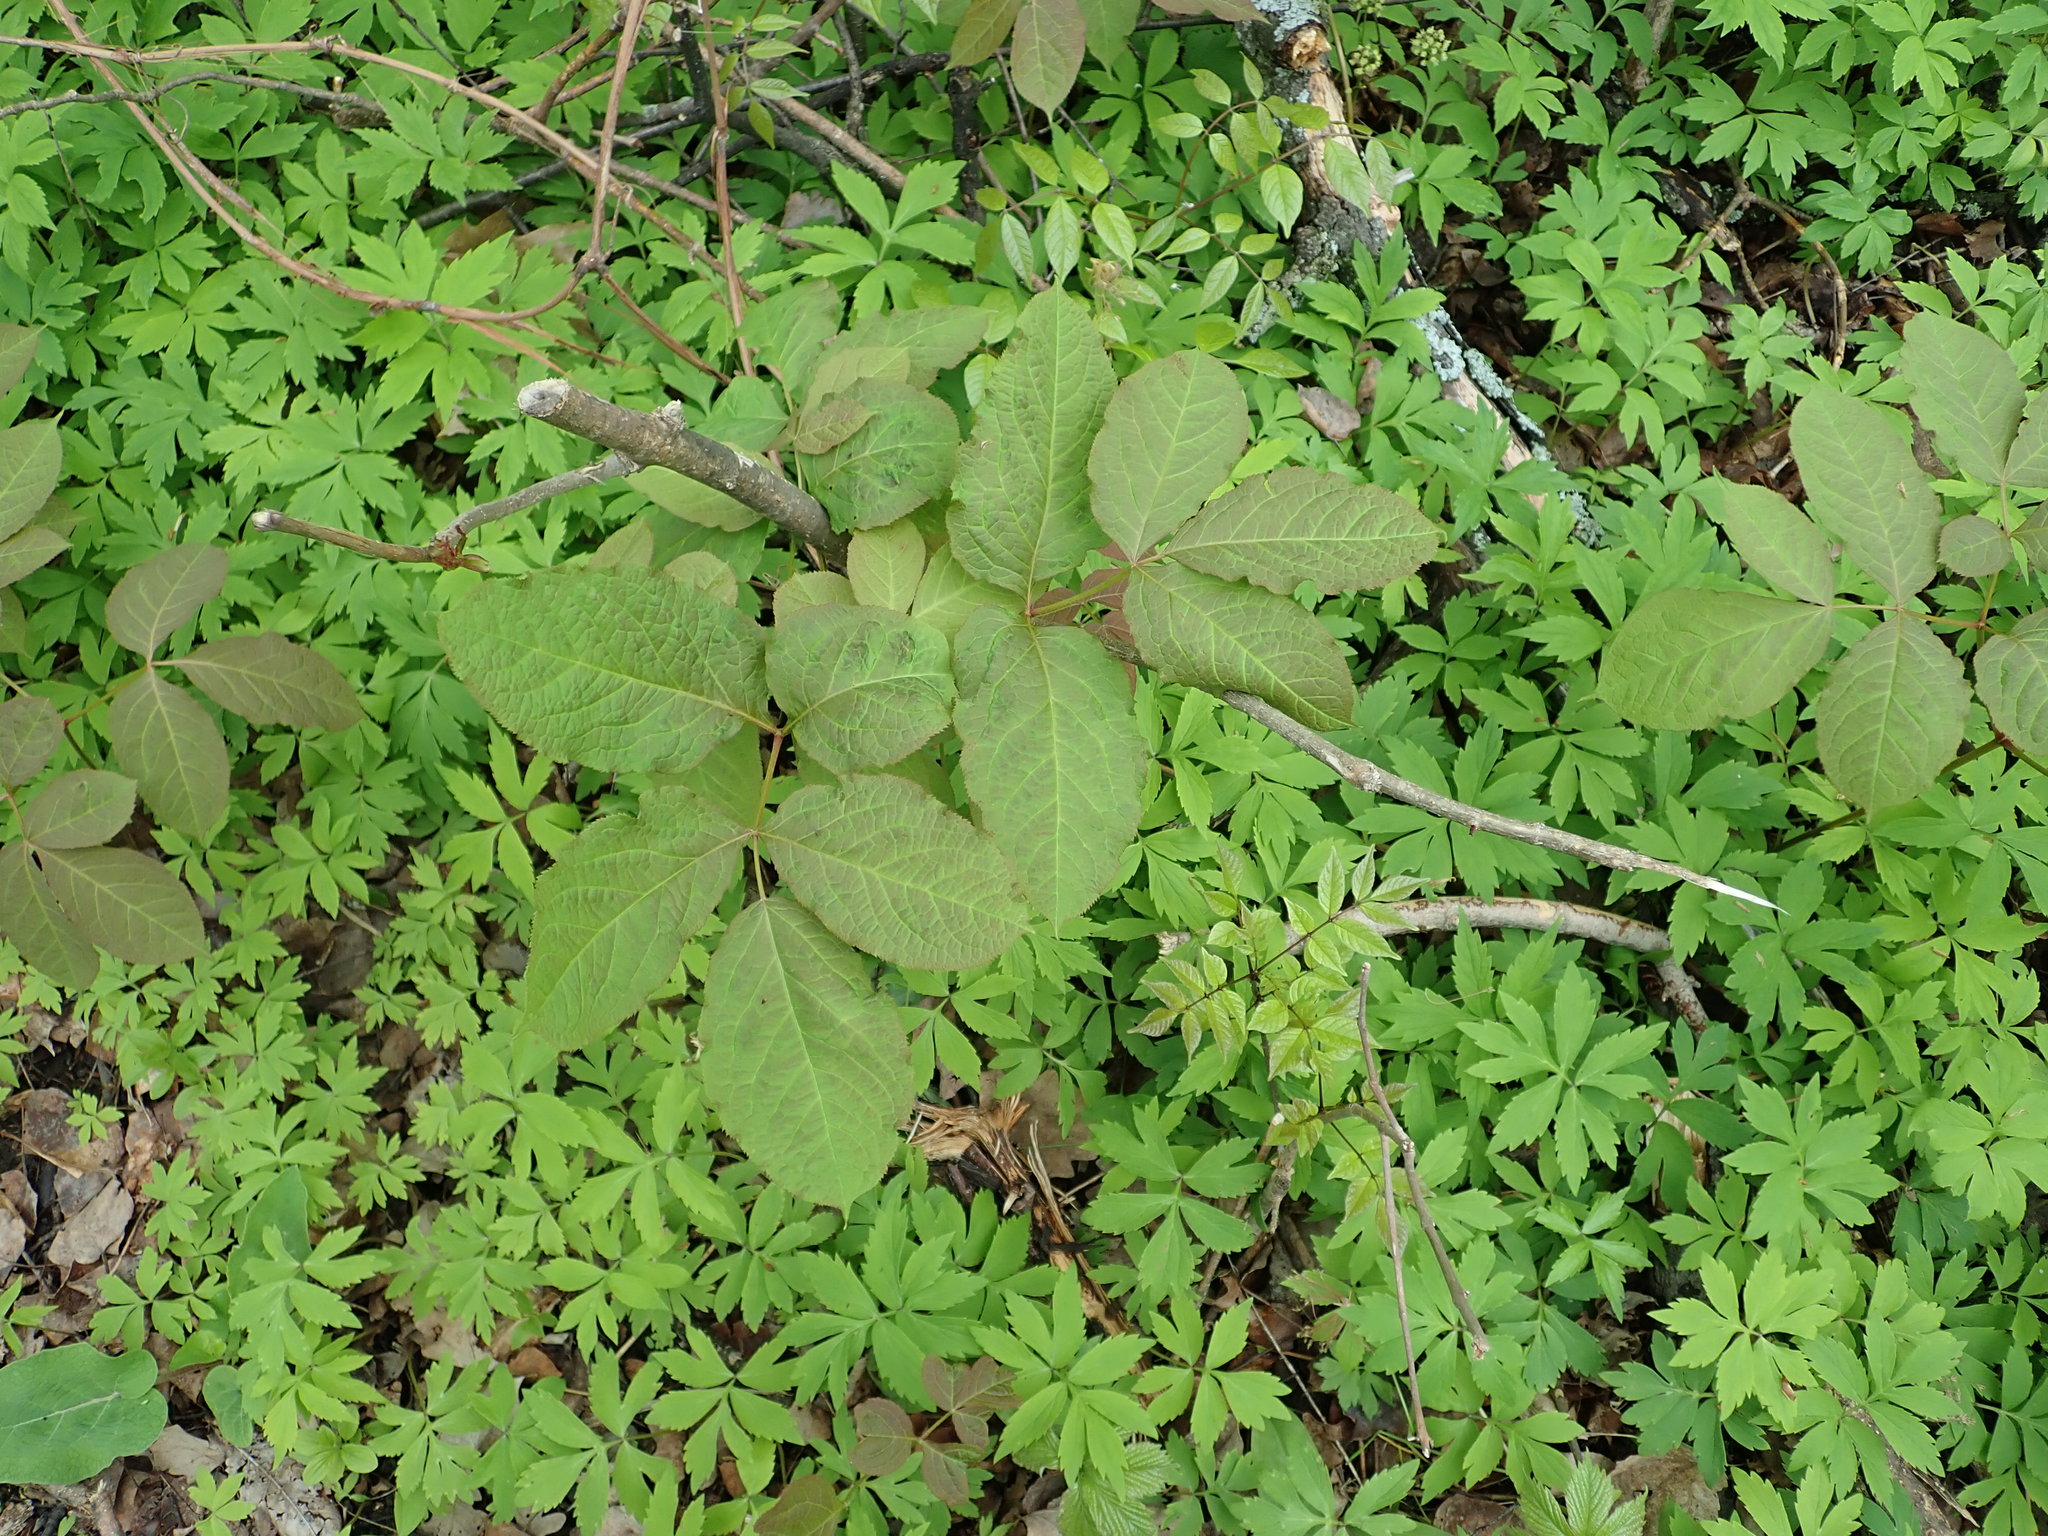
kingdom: Plantae
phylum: Tracheophyta
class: Magnoliopsida
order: Apiales
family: Araliaceae
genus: Aralia
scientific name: Aralia nudicaulis
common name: Wild sarsaparilla
